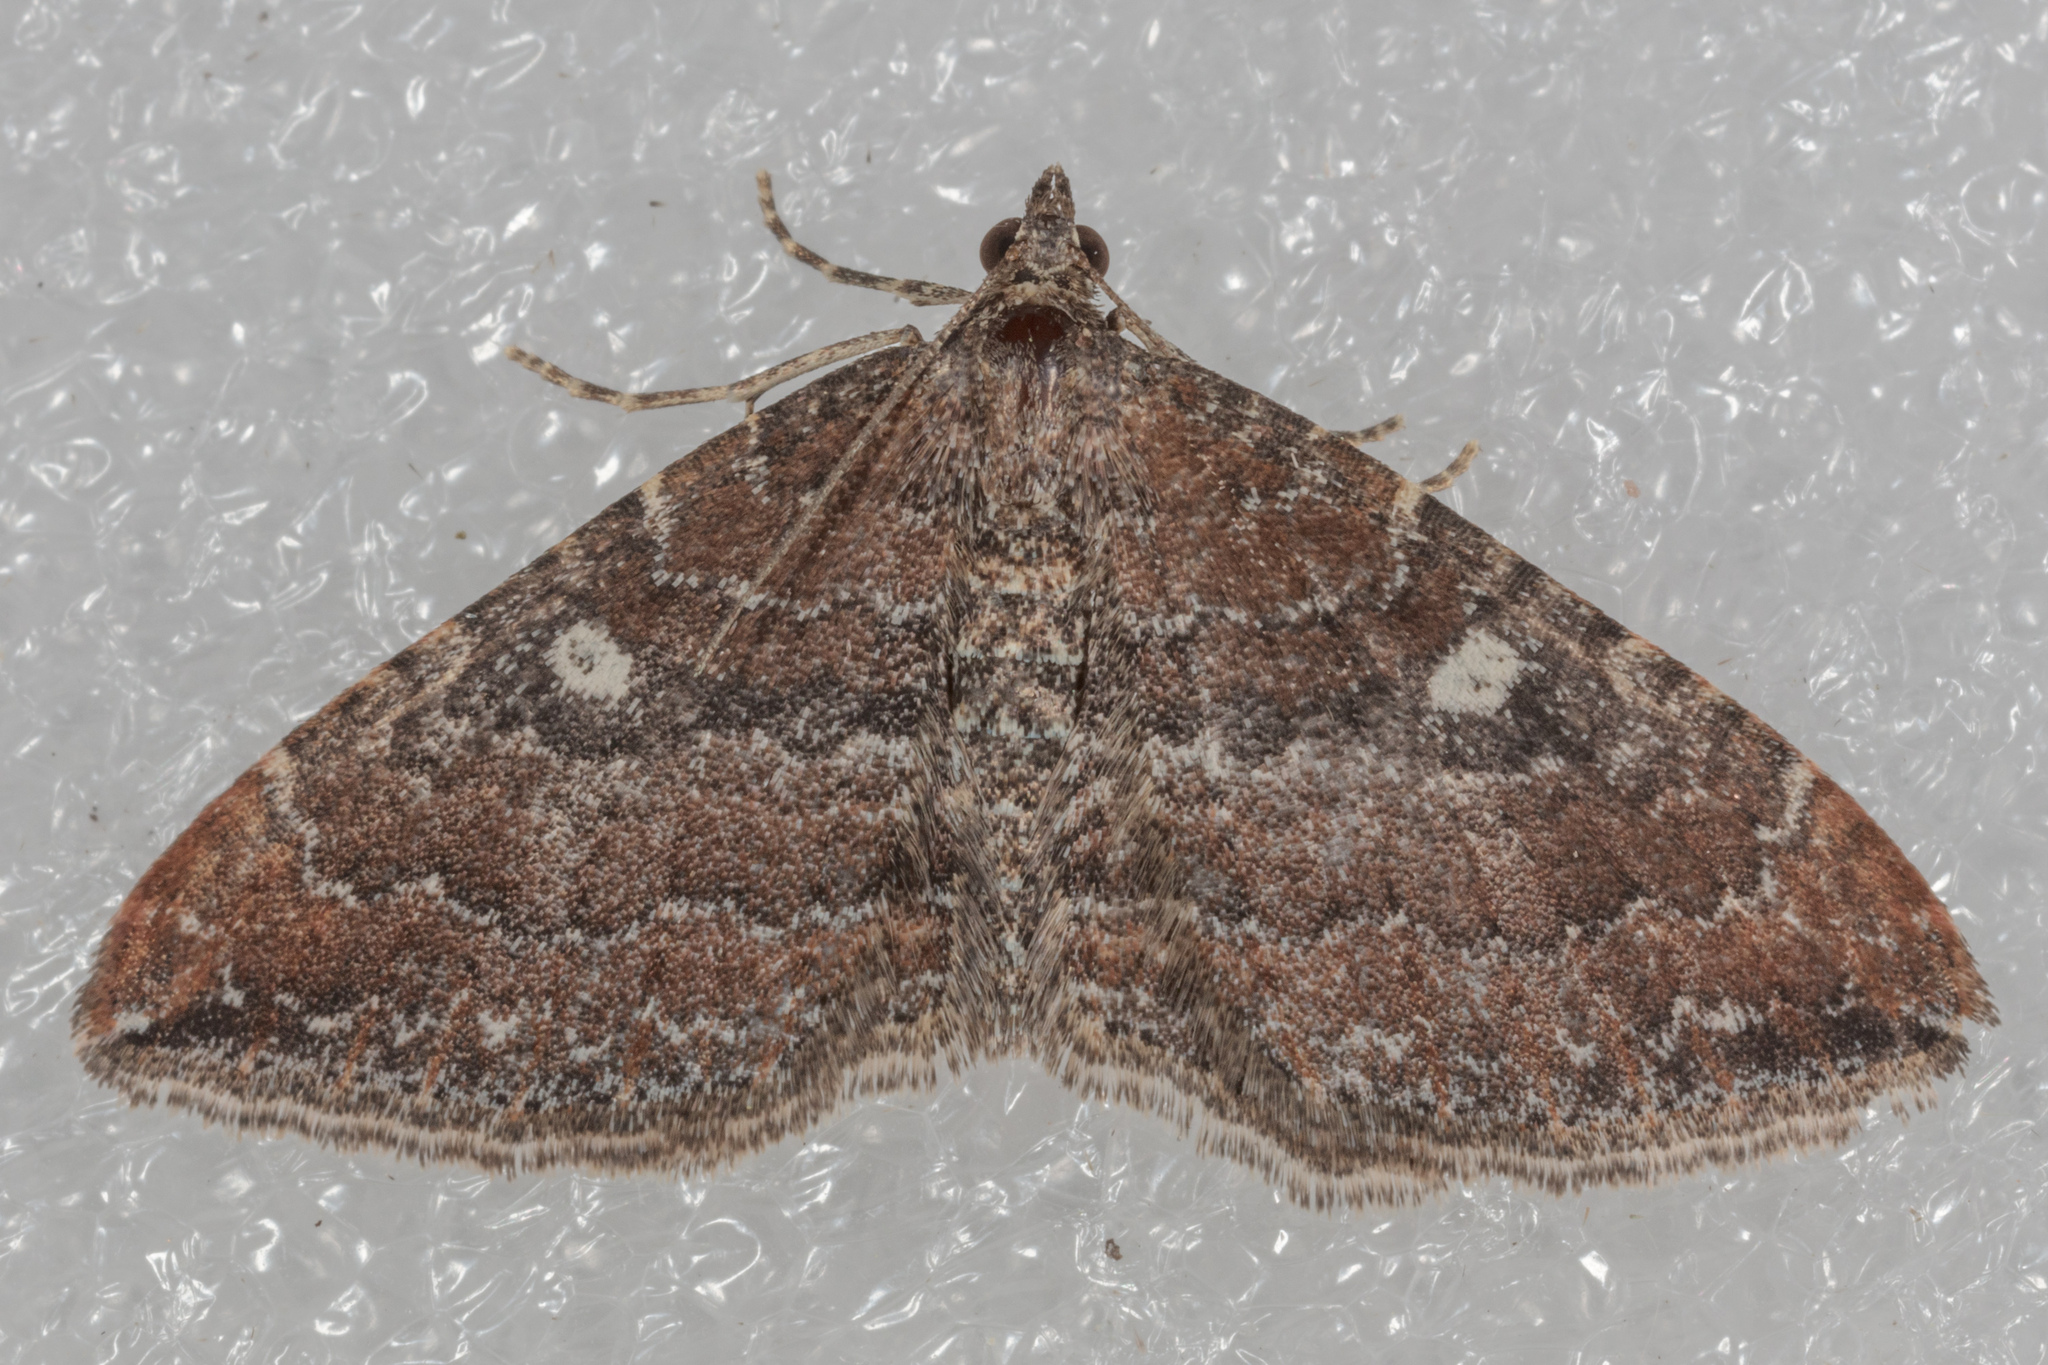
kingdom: Animalia
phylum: Arthropoda
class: Insecta
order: Lepidoptera
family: Geometridae
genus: Orthonama
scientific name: Orthonama obstipata
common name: The gem
